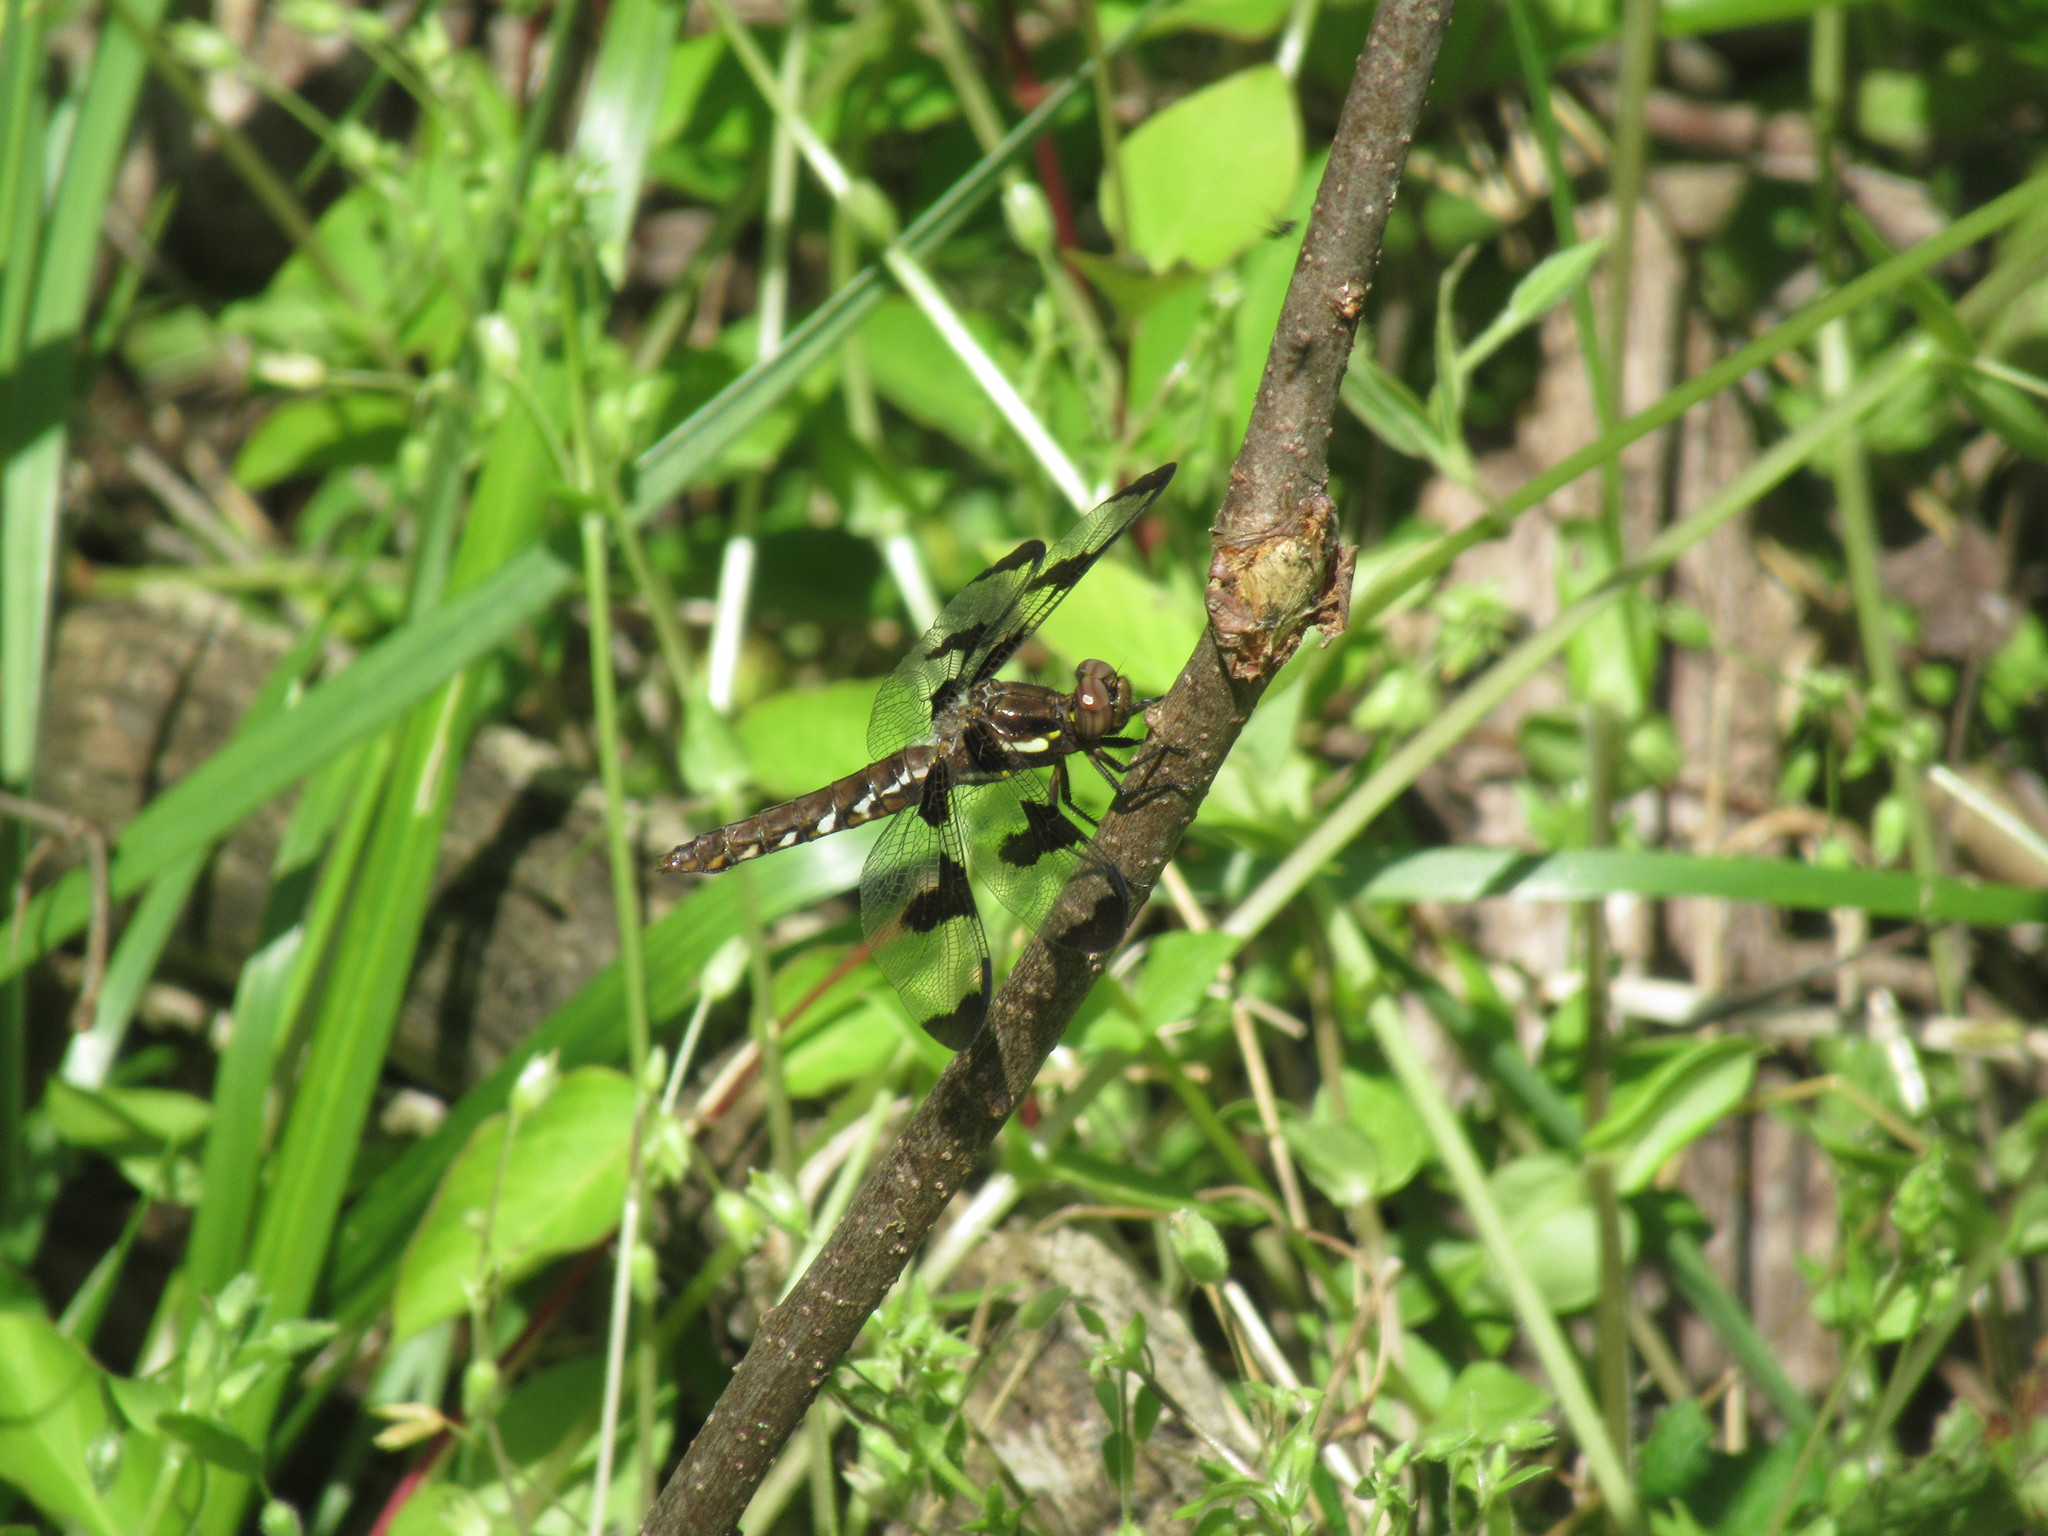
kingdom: Animalia
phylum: Arthropoda
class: Insecta
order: Odonata
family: Libellulidae
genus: Plathemis
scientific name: Plathemis lydia
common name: Common whitetail
